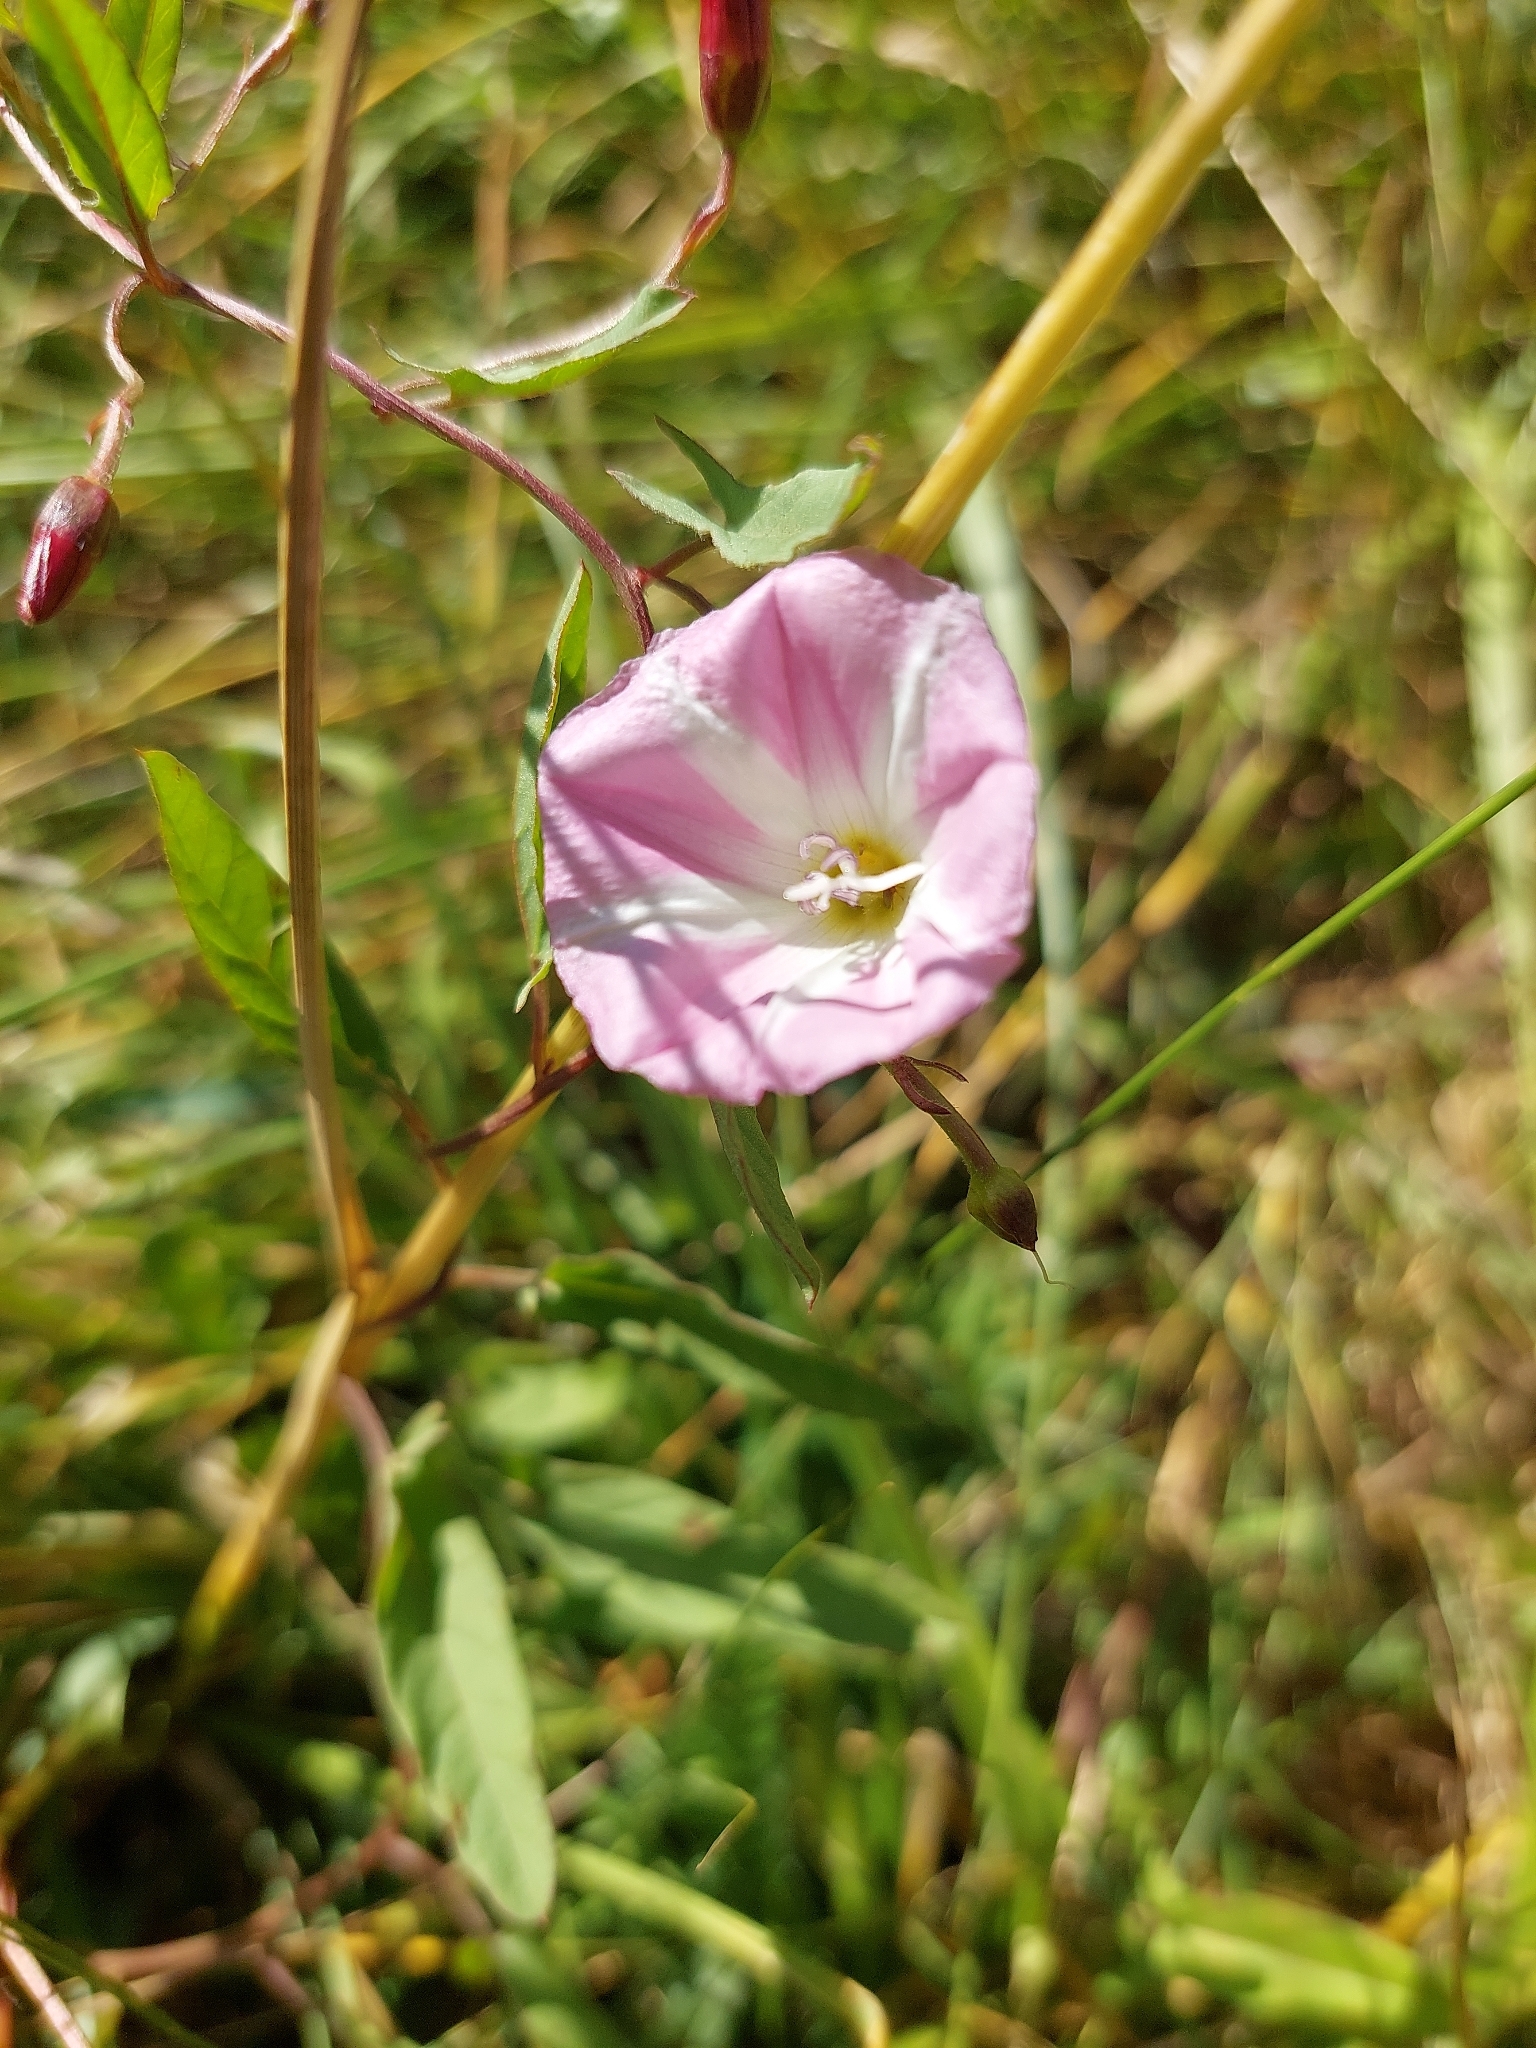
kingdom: Plantae
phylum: Tracheophyta
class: Magnoliopsida
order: Solanales
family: Convolvulaceae
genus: Convolvulus
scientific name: Convolvulus arvensis
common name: Field bindweed
